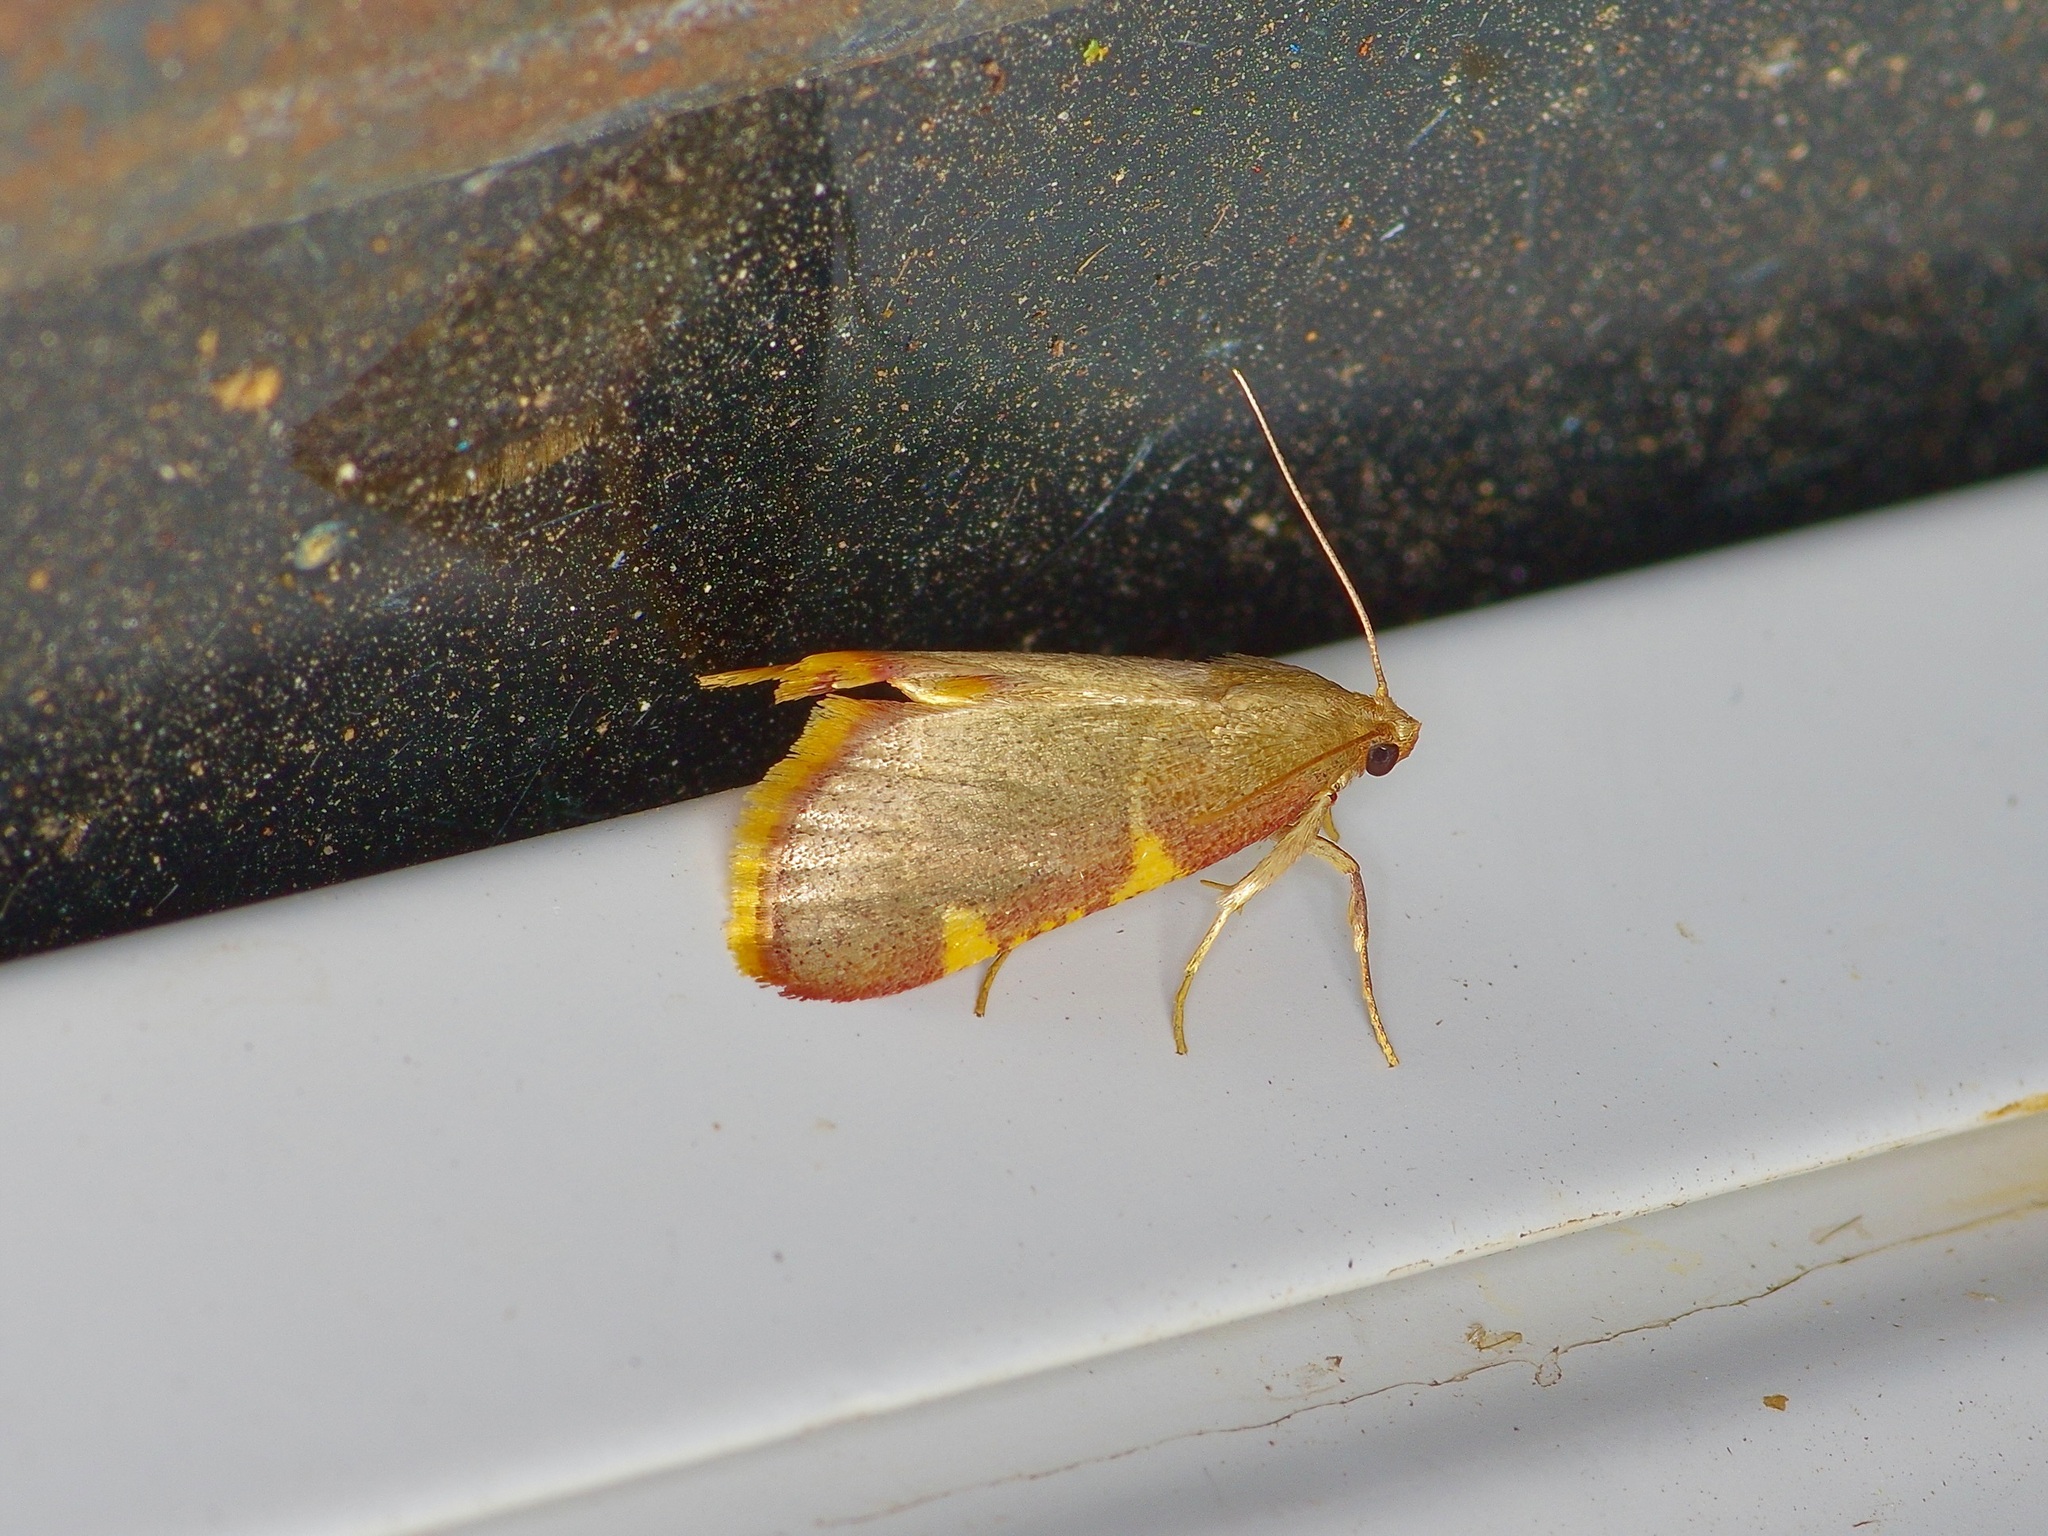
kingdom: Animalia
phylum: Arthropoda
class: Insecta
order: Lepidoptera
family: Pyralidae
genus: Hypsopygia
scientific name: Hypsopygia olinalis
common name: Yellow-fringed dolichomia moth
